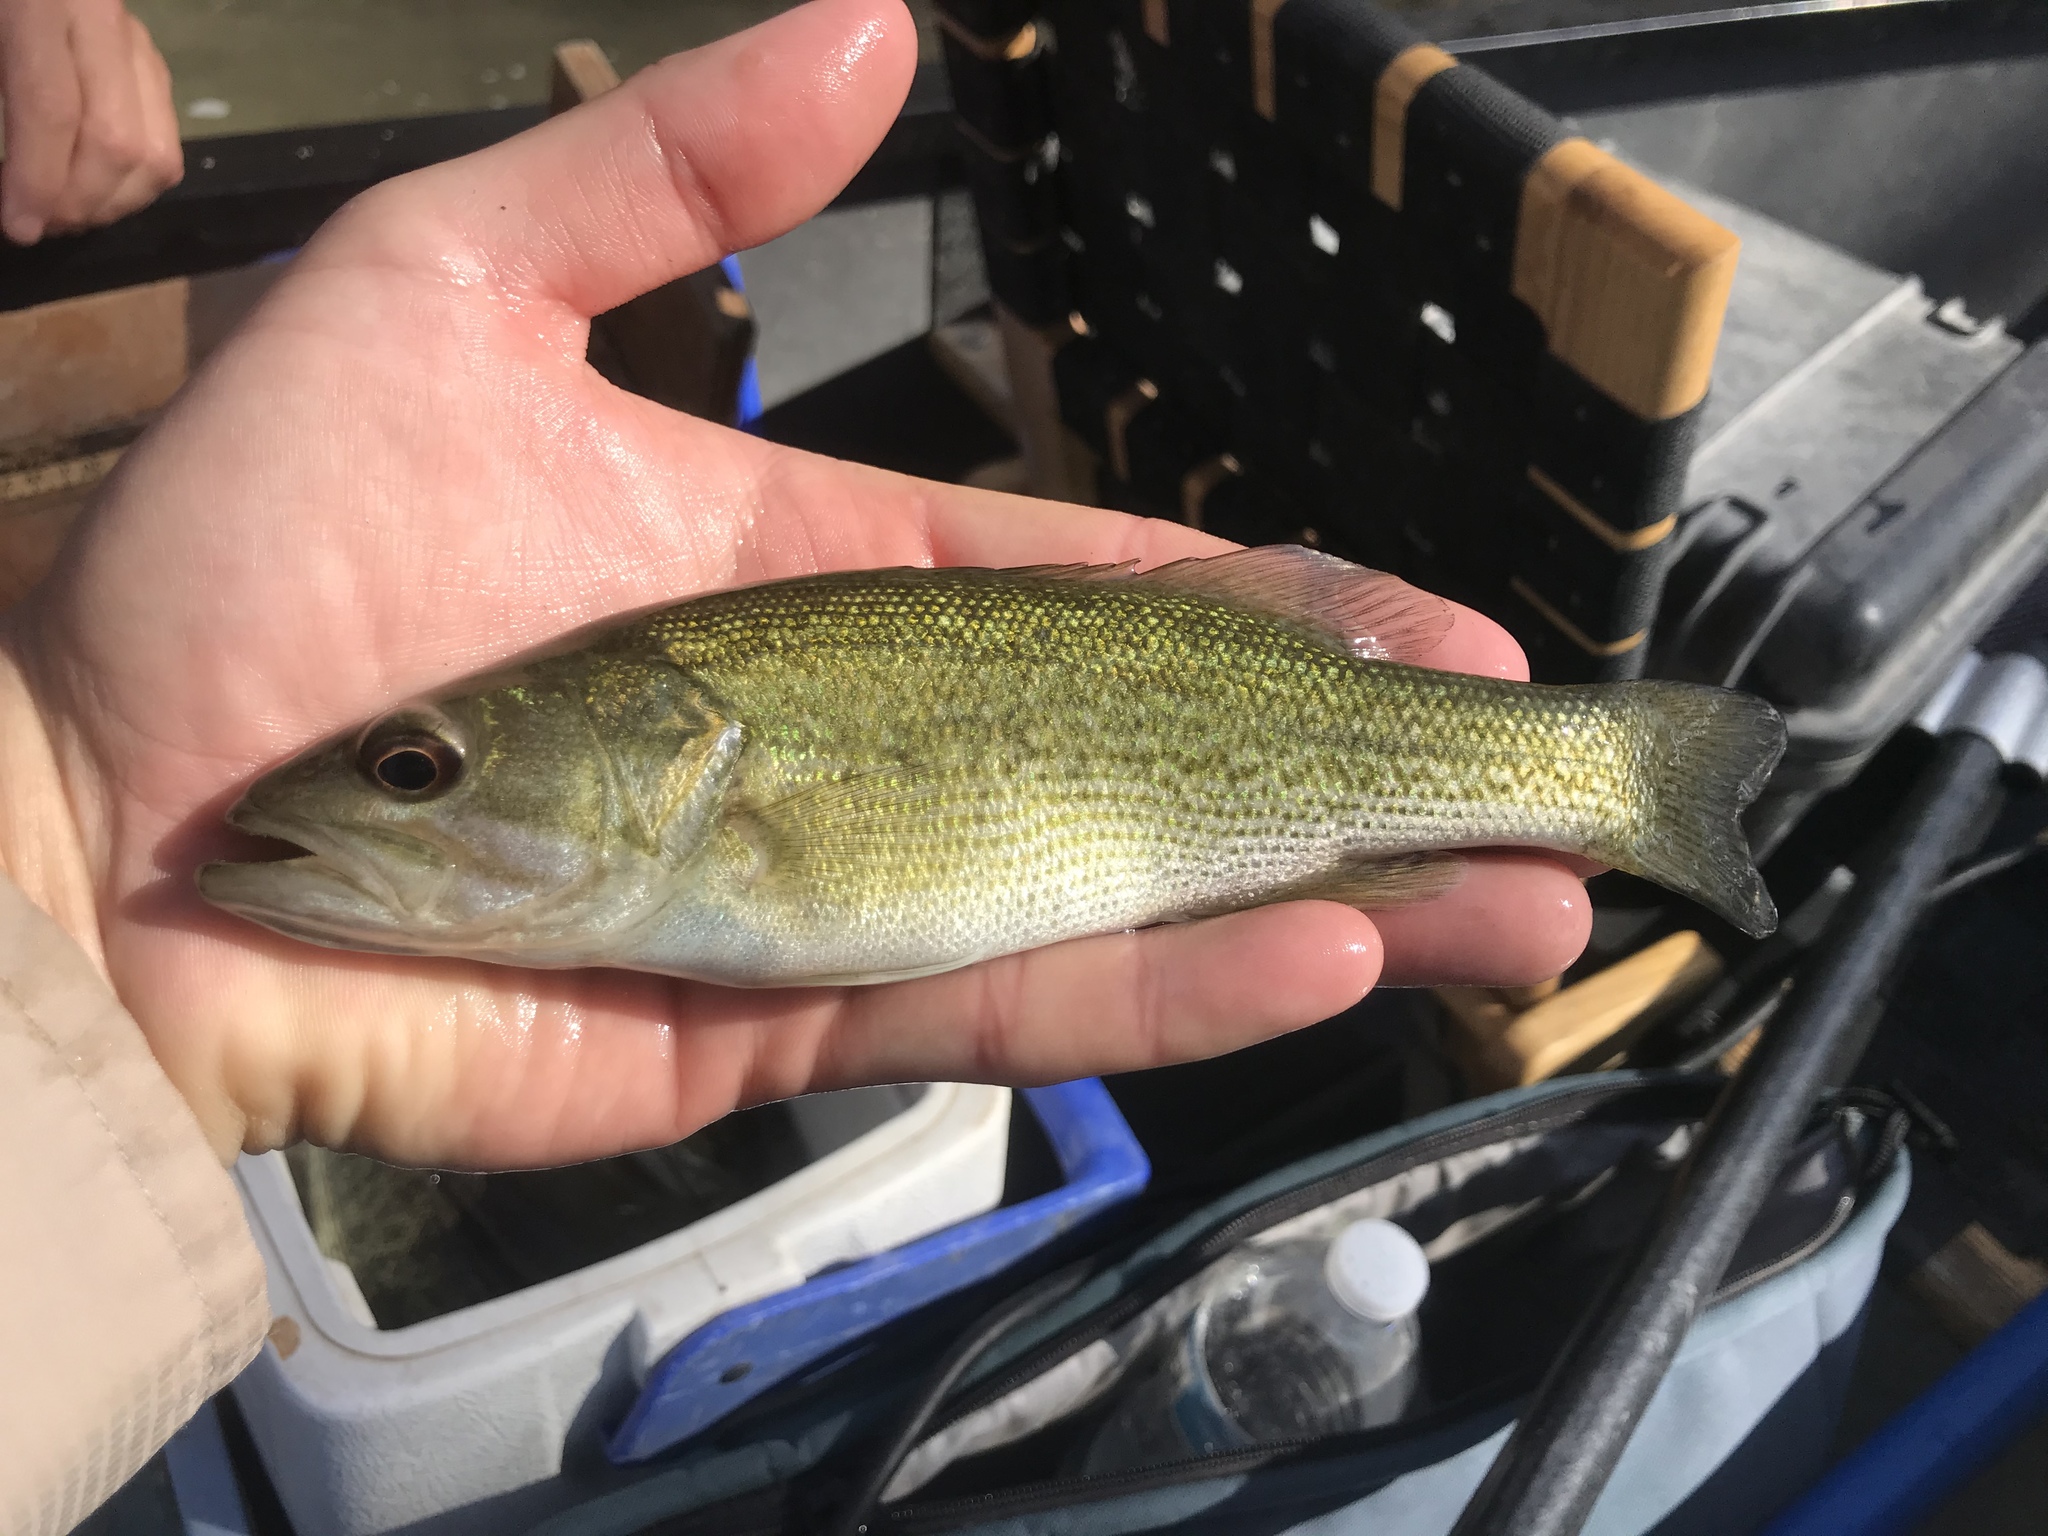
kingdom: Animalia
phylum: Chordata
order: Perciformes
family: Centrarchidae
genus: Micropterus
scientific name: Micropterus treculii
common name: Guadalupe bass
